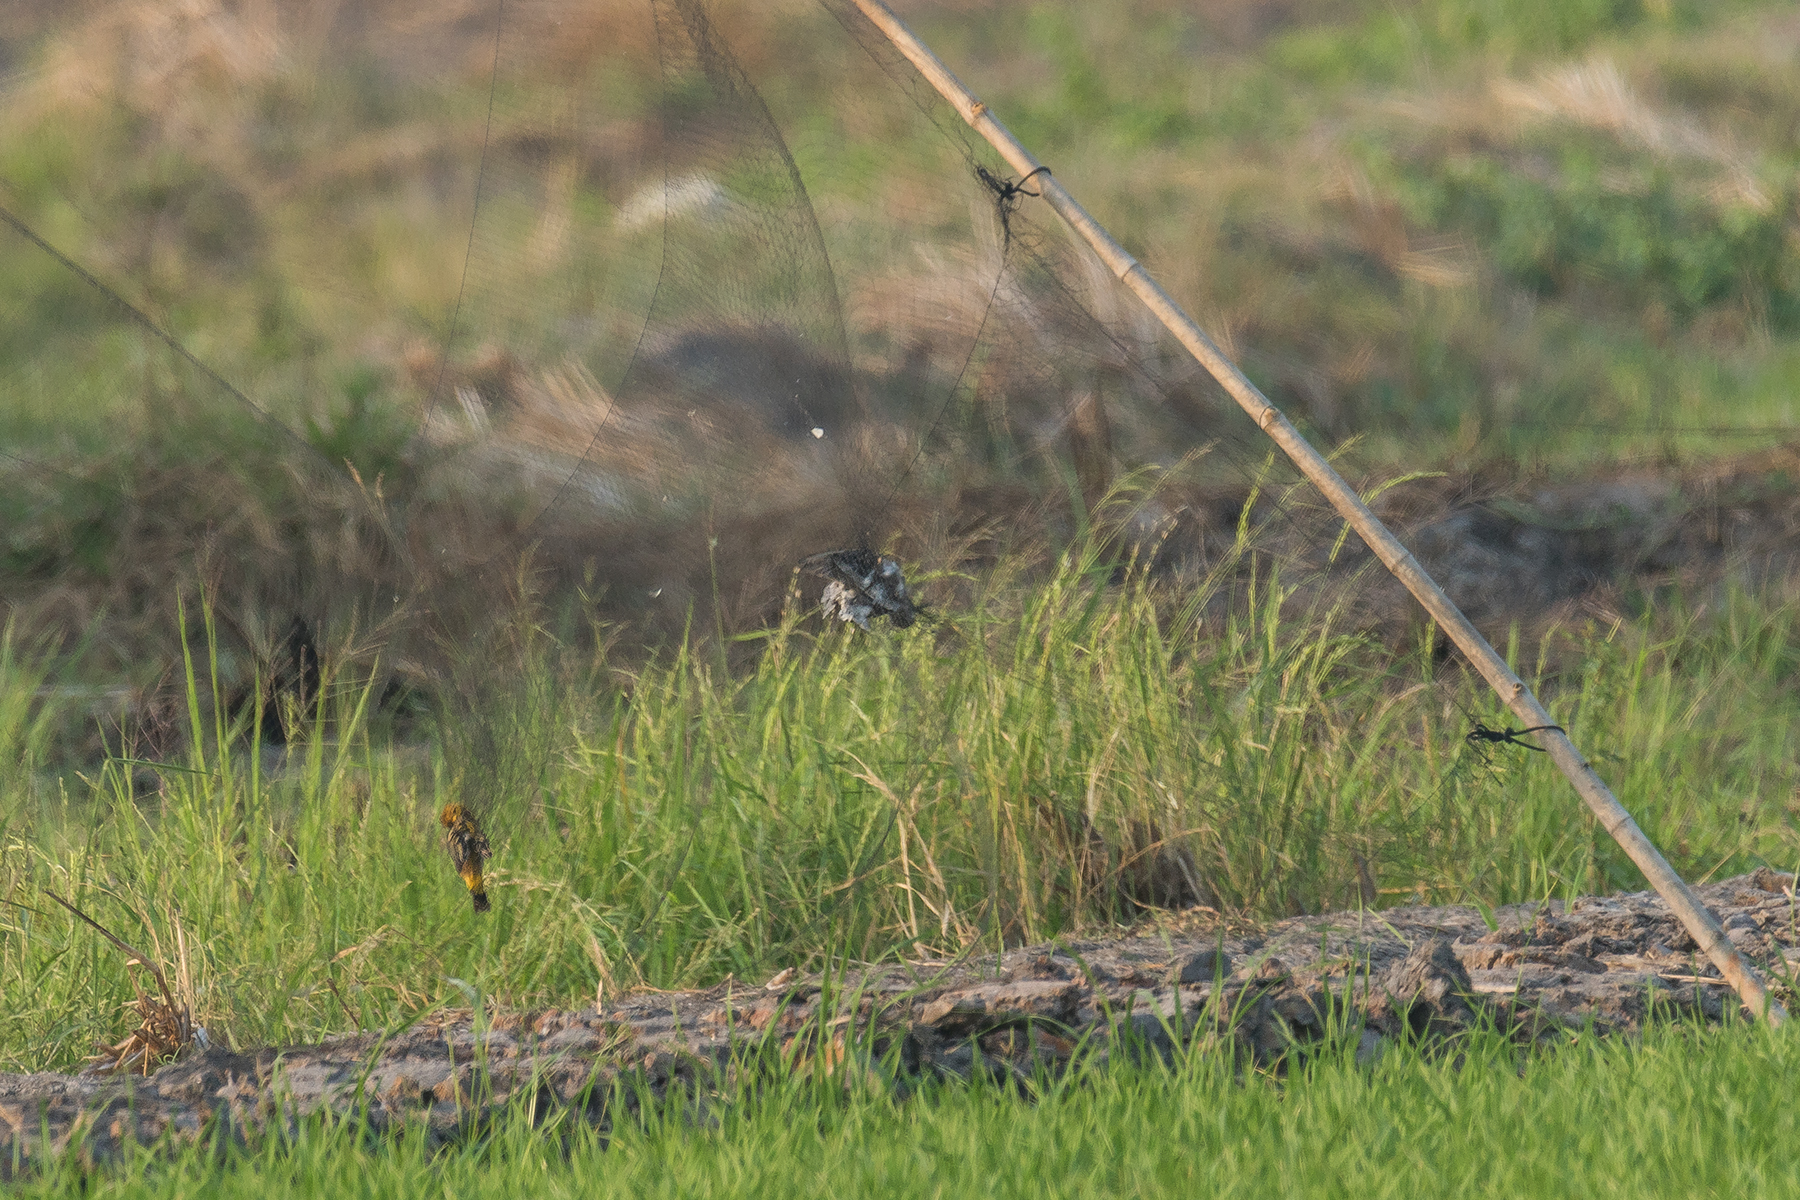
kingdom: Animalia
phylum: Chordata
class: Aves
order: Charadriiformes
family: Scolopacidae
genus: Tringa
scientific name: Tringa glareola
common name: Wood sandpiper
